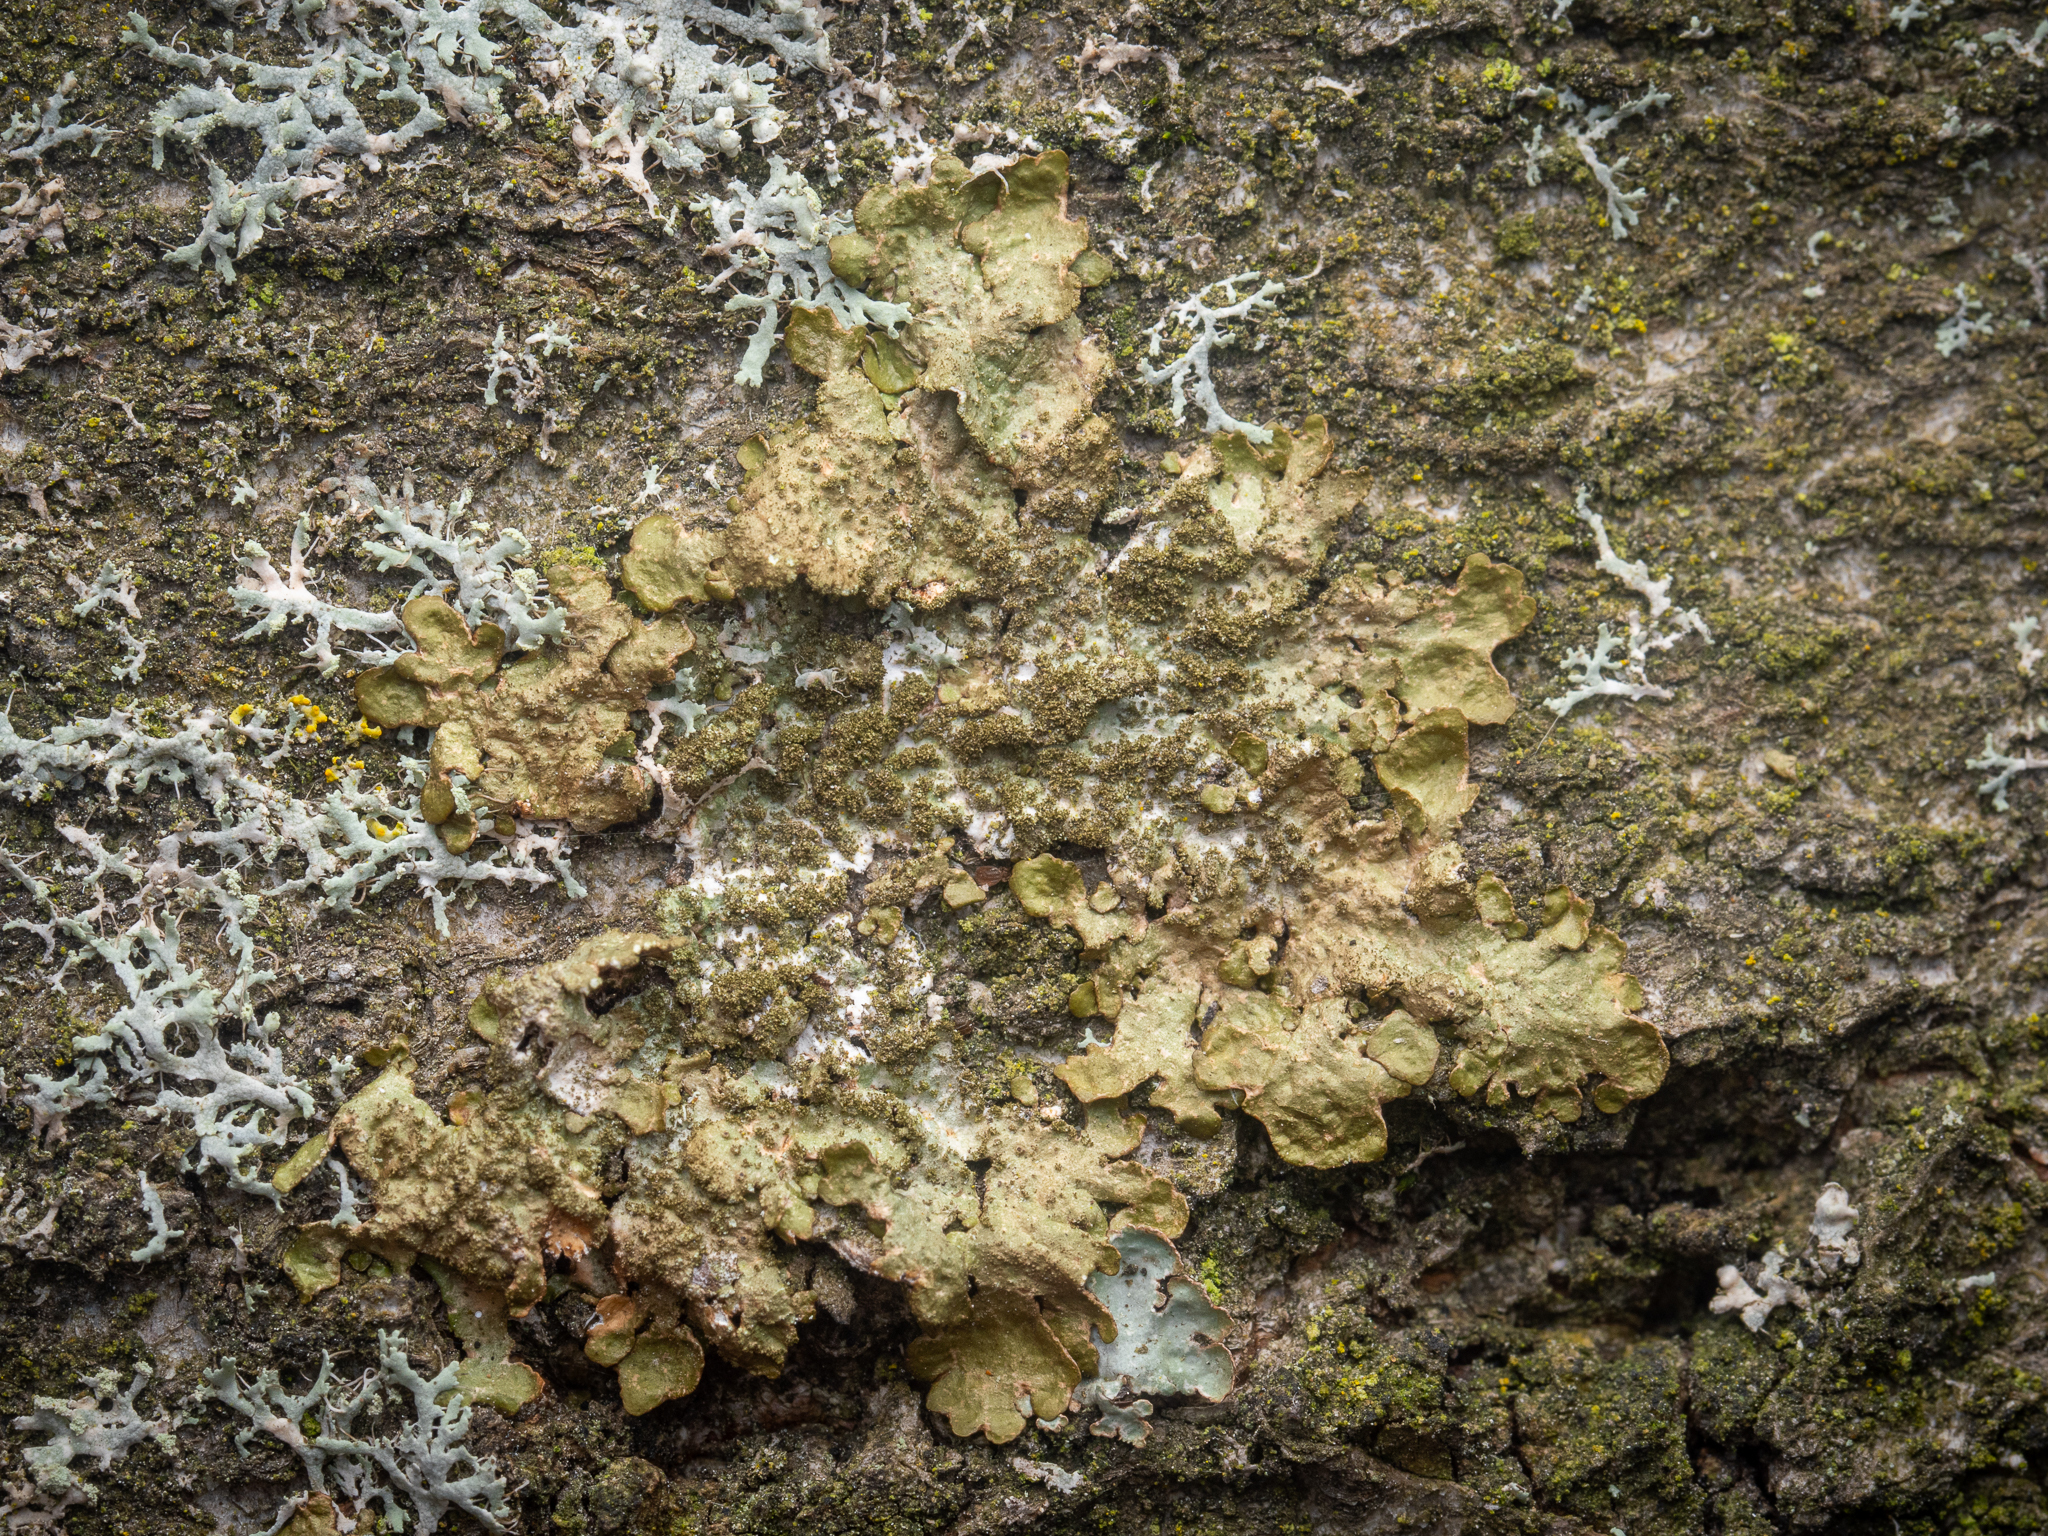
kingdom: Fungi
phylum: Ascomycota
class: Lecanoromycetes
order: Lecanorales
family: Parmeliaceae
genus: Melanelixia
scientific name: Melanelixia subaurifera
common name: Abraded camouflage lichen
